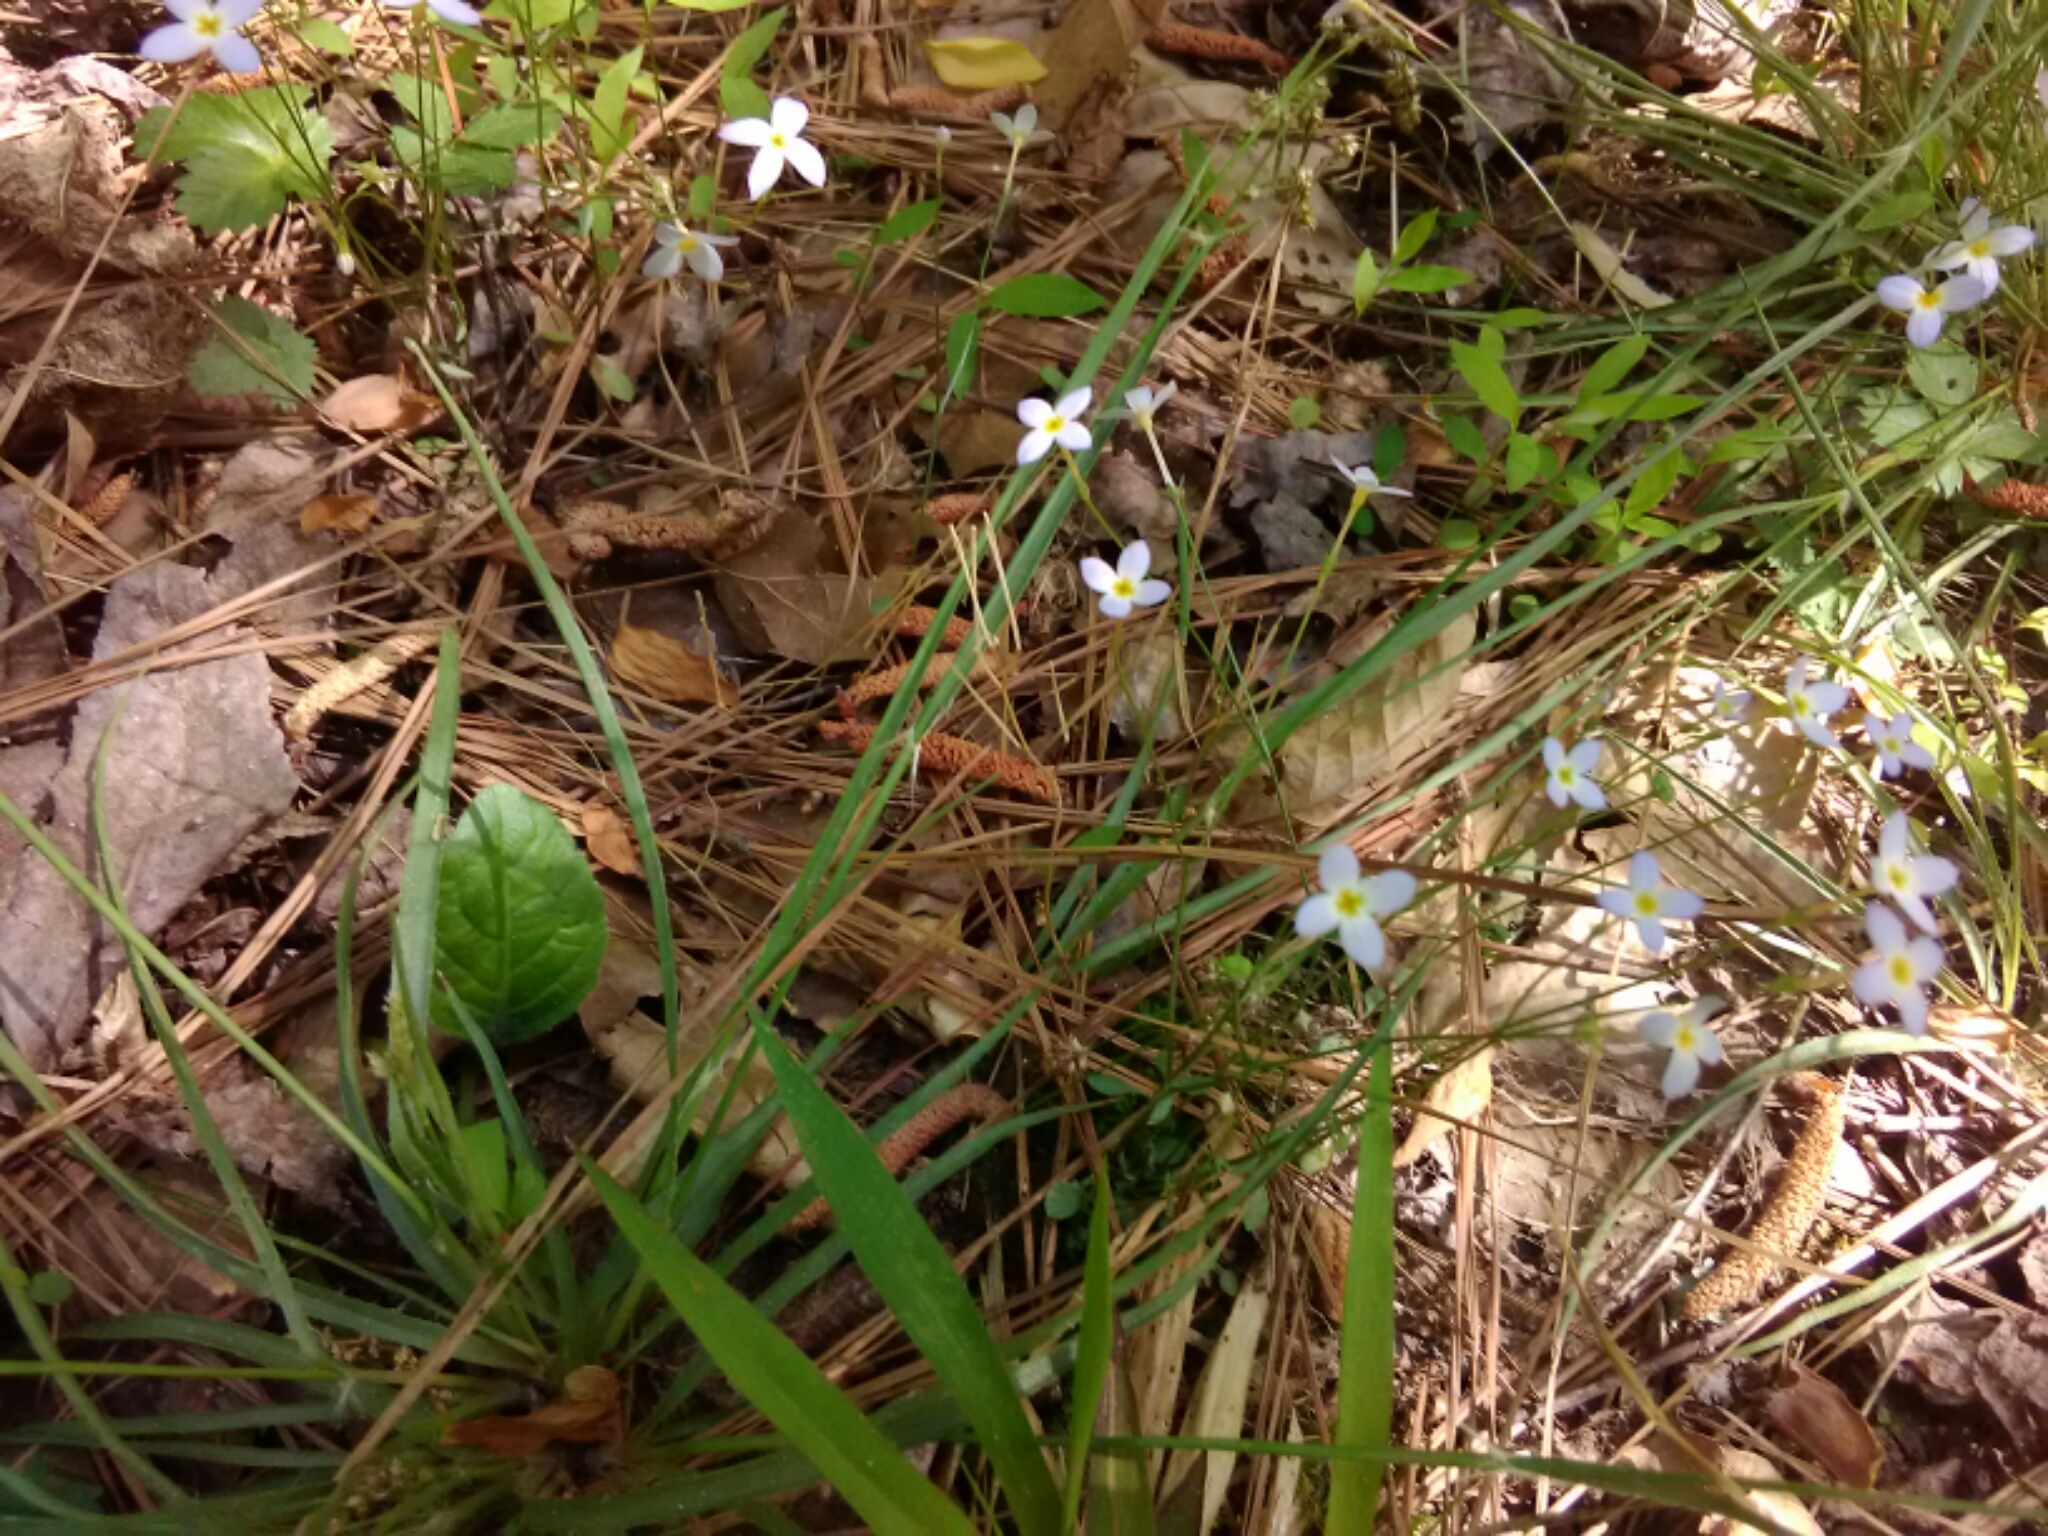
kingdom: Plantae
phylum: Tracheophyta
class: Magnoliopsida
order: Gentianales
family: Rubiaceae
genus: Houstonia
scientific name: Houstonia caerulea
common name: Bluets
